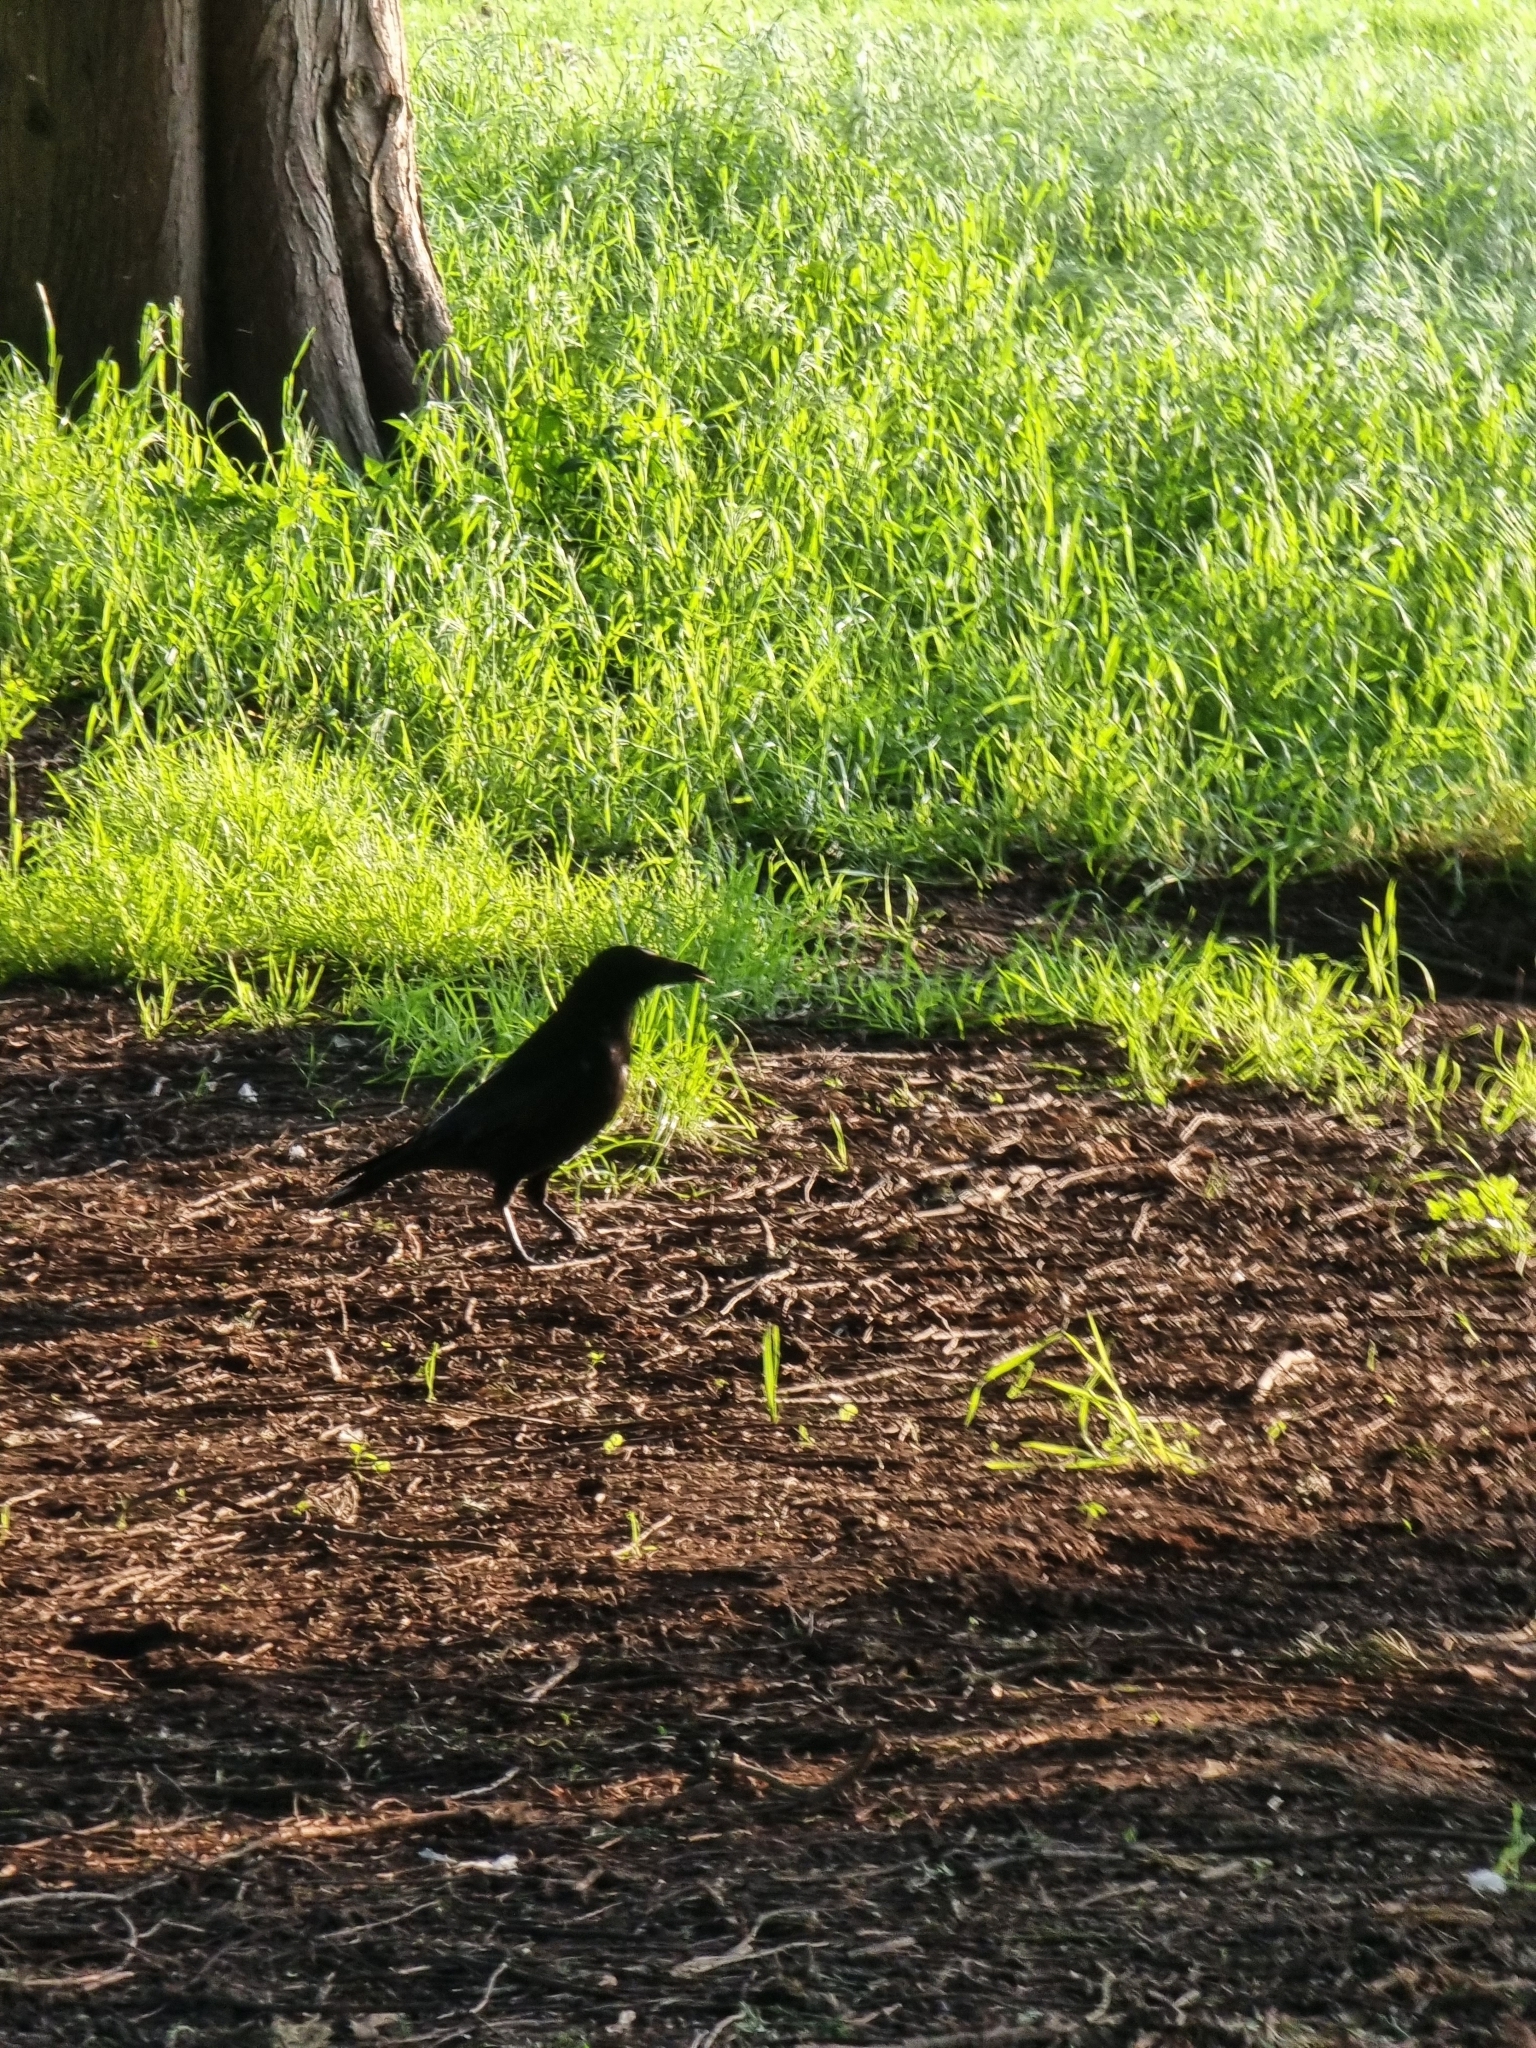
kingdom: Animalia
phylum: Chordata
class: Aves
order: Passeriformes
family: Corvidae
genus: Corvus
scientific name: Corvus corone
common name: Carrion crow
